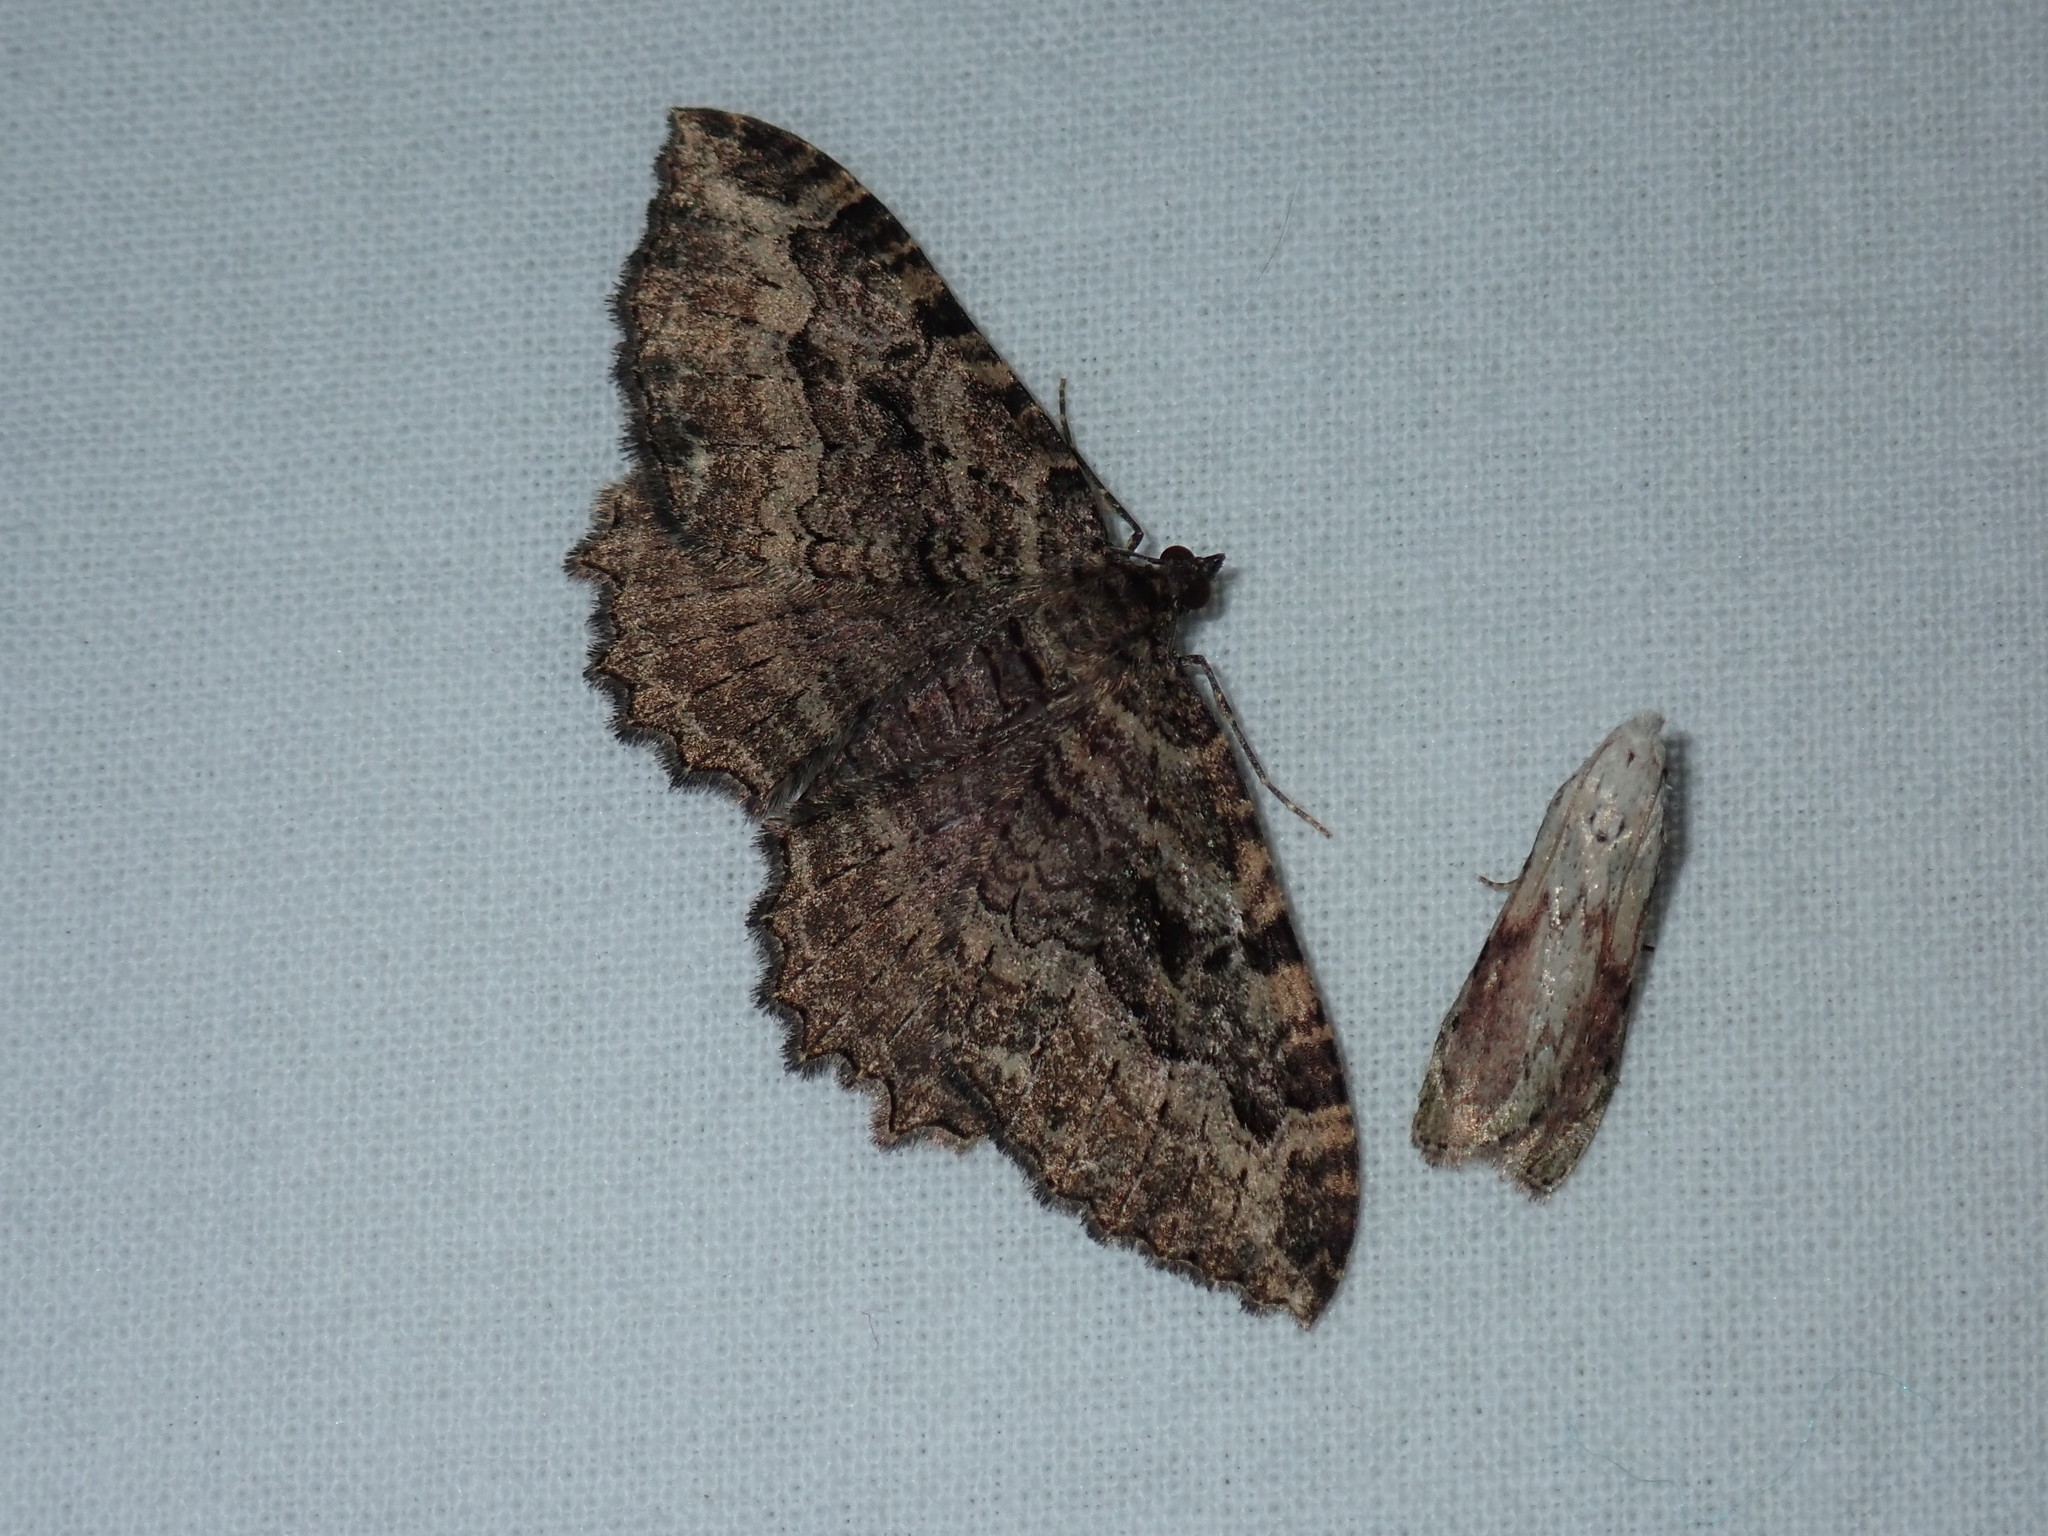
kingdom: Animalia
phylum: Arthropoda
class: Insecta
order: Lepidoptera
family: Geometridae
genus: Rheumaptera
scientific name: Rheumaptera
